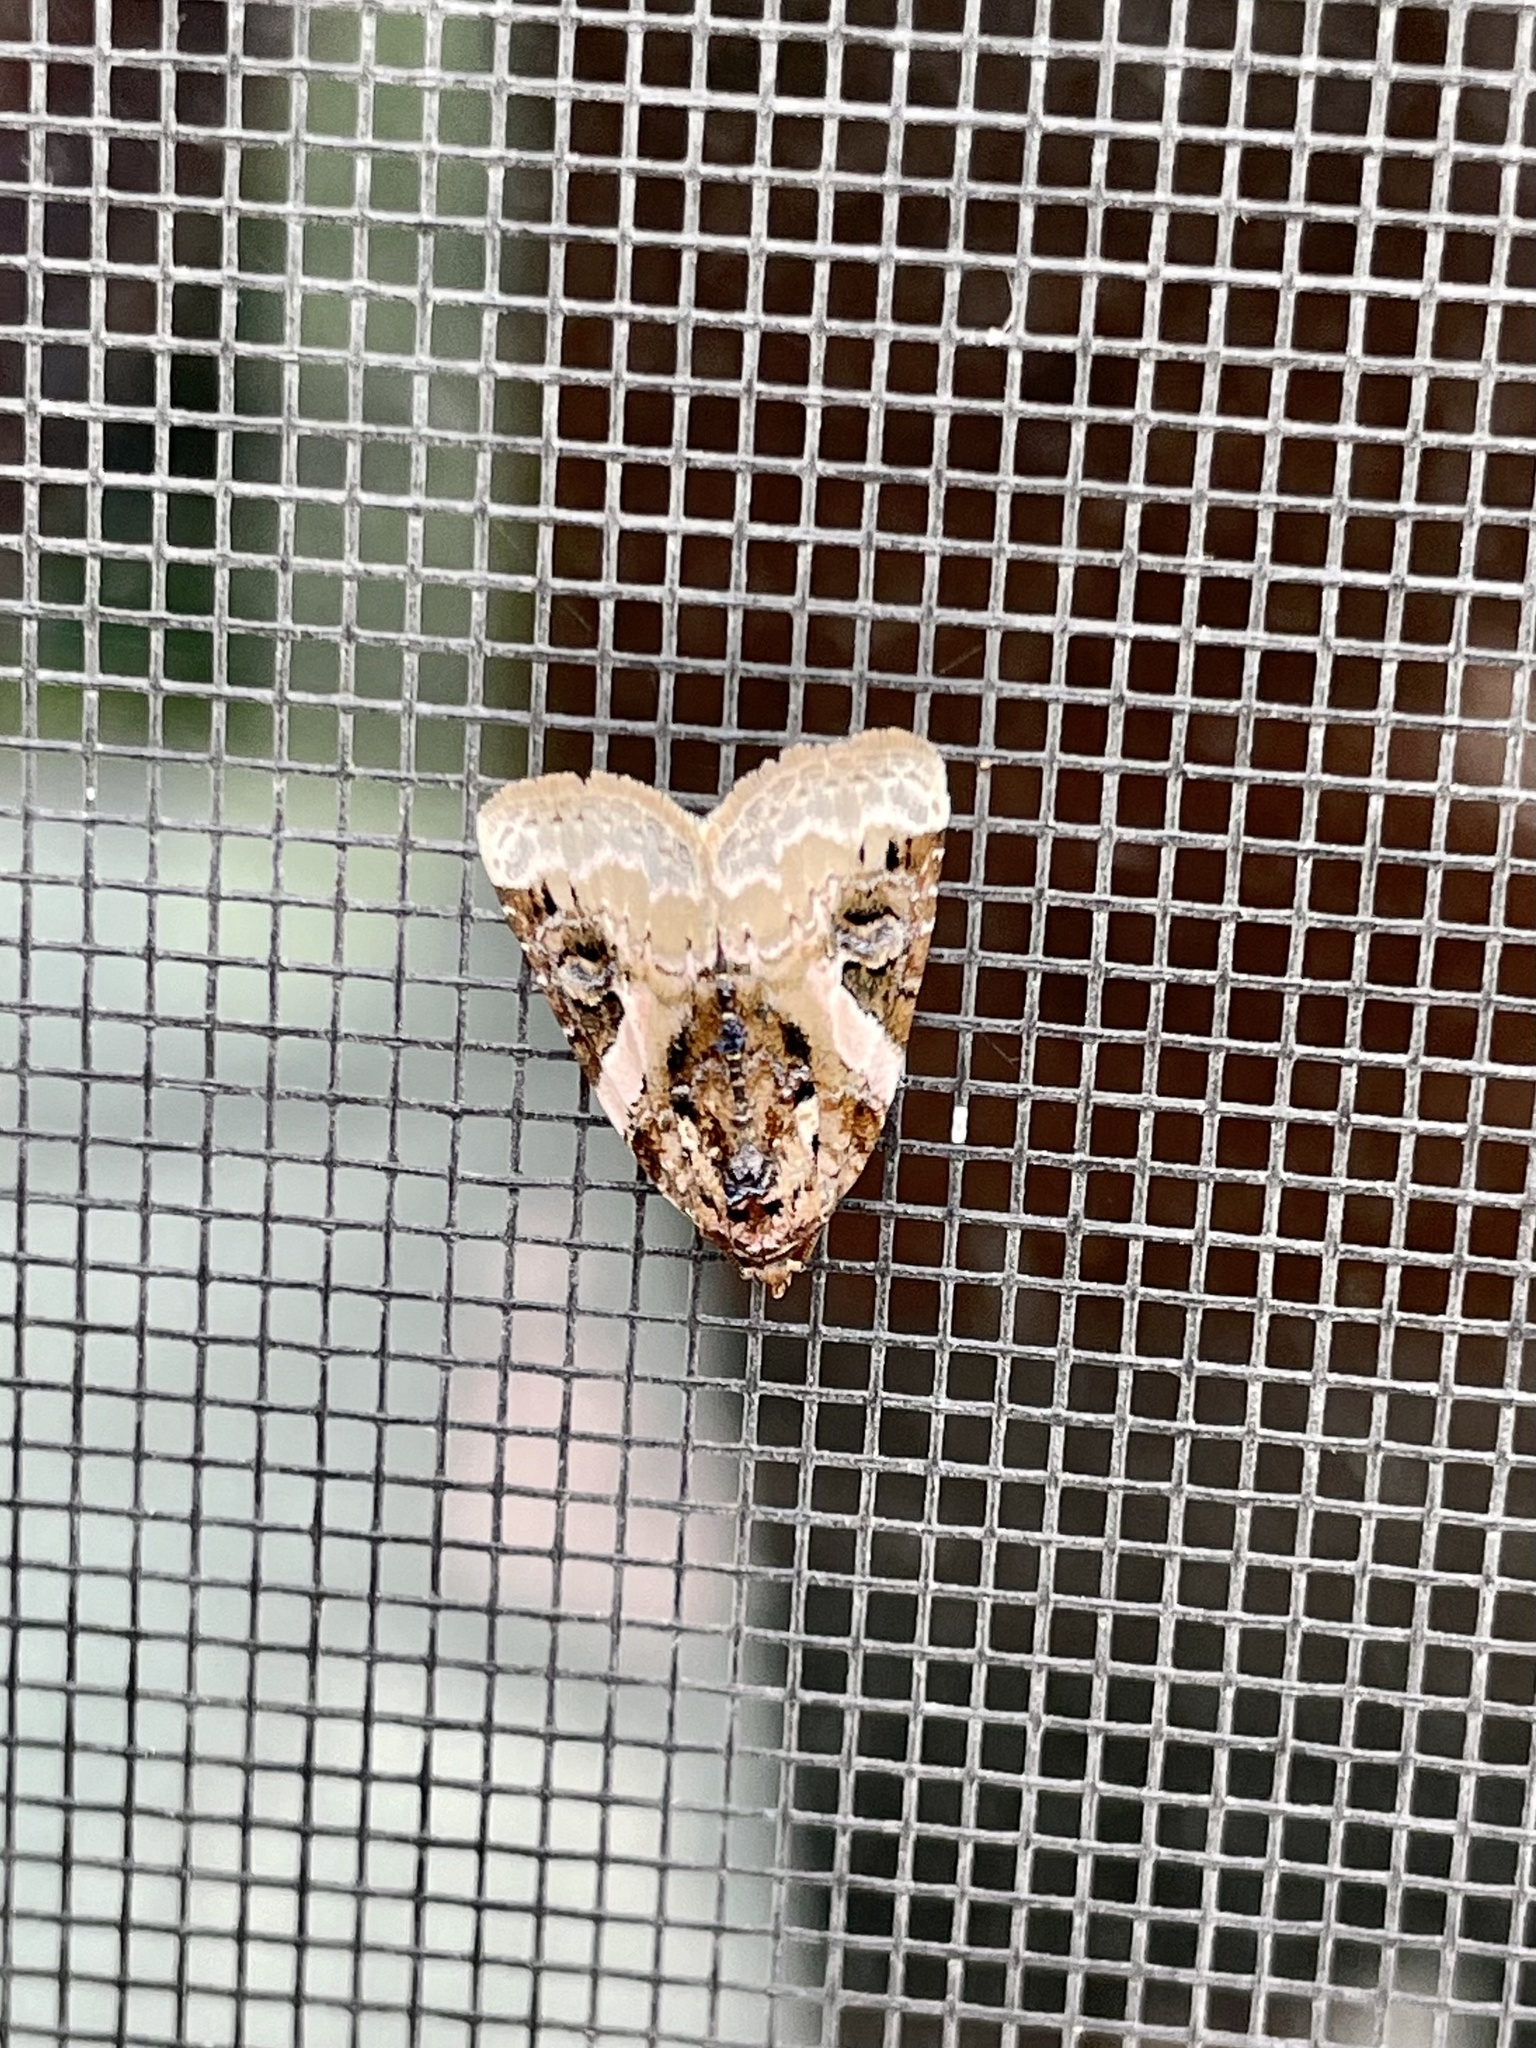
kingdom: Animalia
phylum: Arthropoda
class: Insecta
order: Lepidoptera
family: Noctuidae
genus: Pseudeustrotia
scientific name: Pseudeustrotia carneola
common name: Pink-barred lithacodia moth
